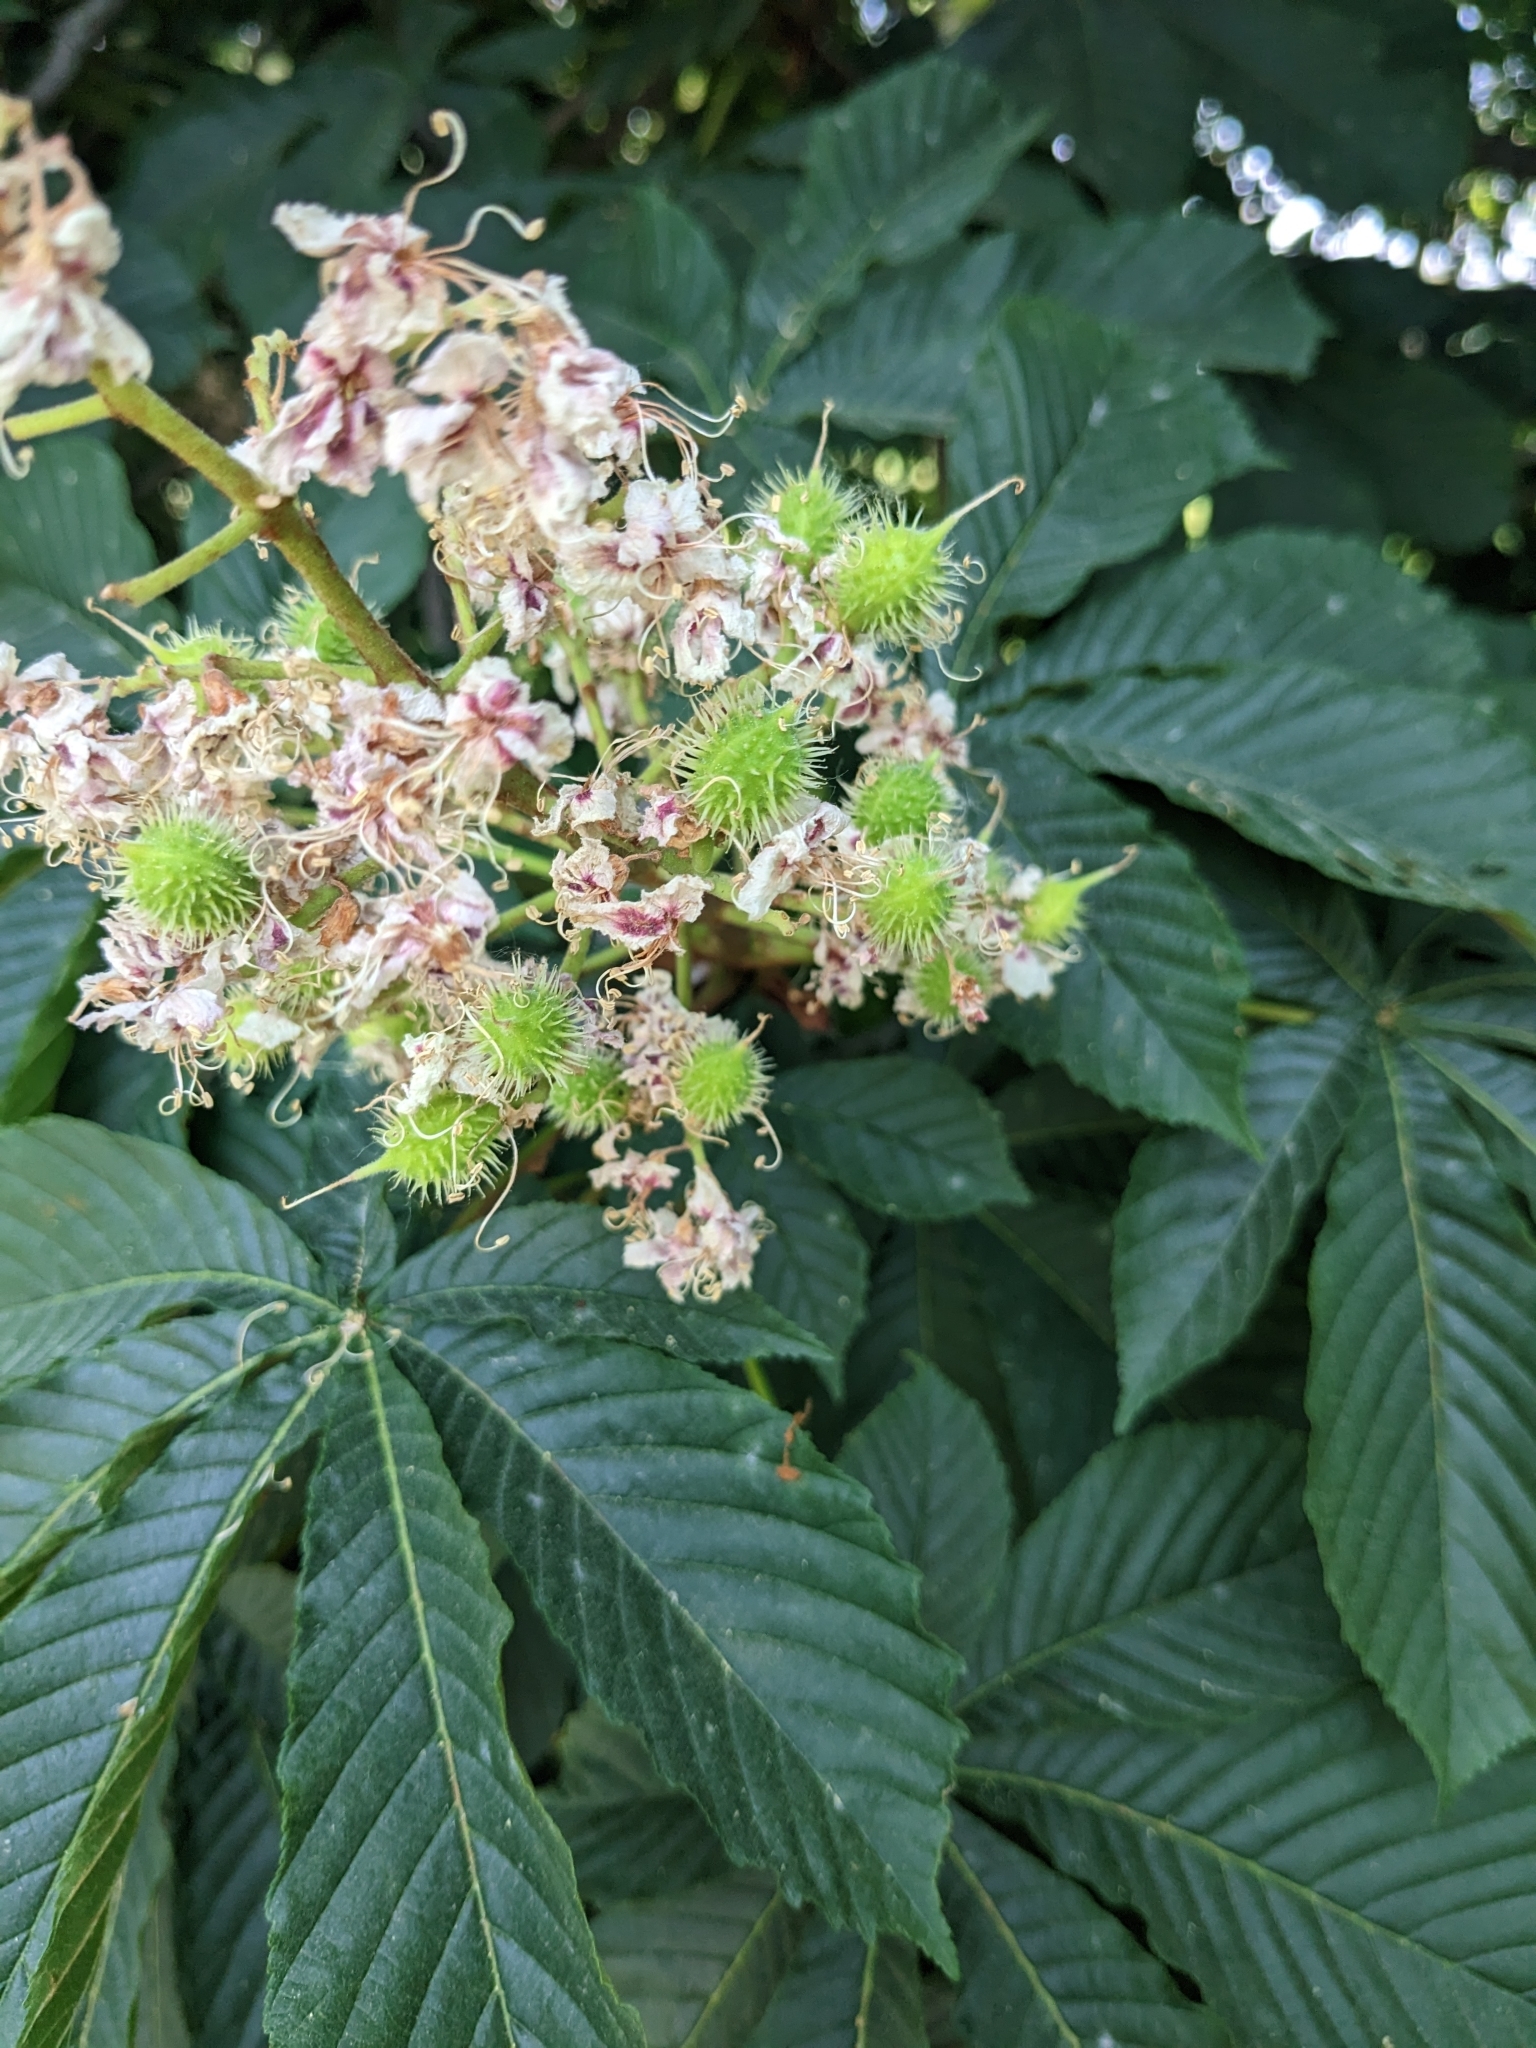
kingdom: Plantae
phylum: Tracheophyta
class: Magnoliopsida
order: Sapindales
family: Sapindaceae
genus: Aesculus
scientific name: Aesculus hippocastanum
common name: Horse-chestnut
